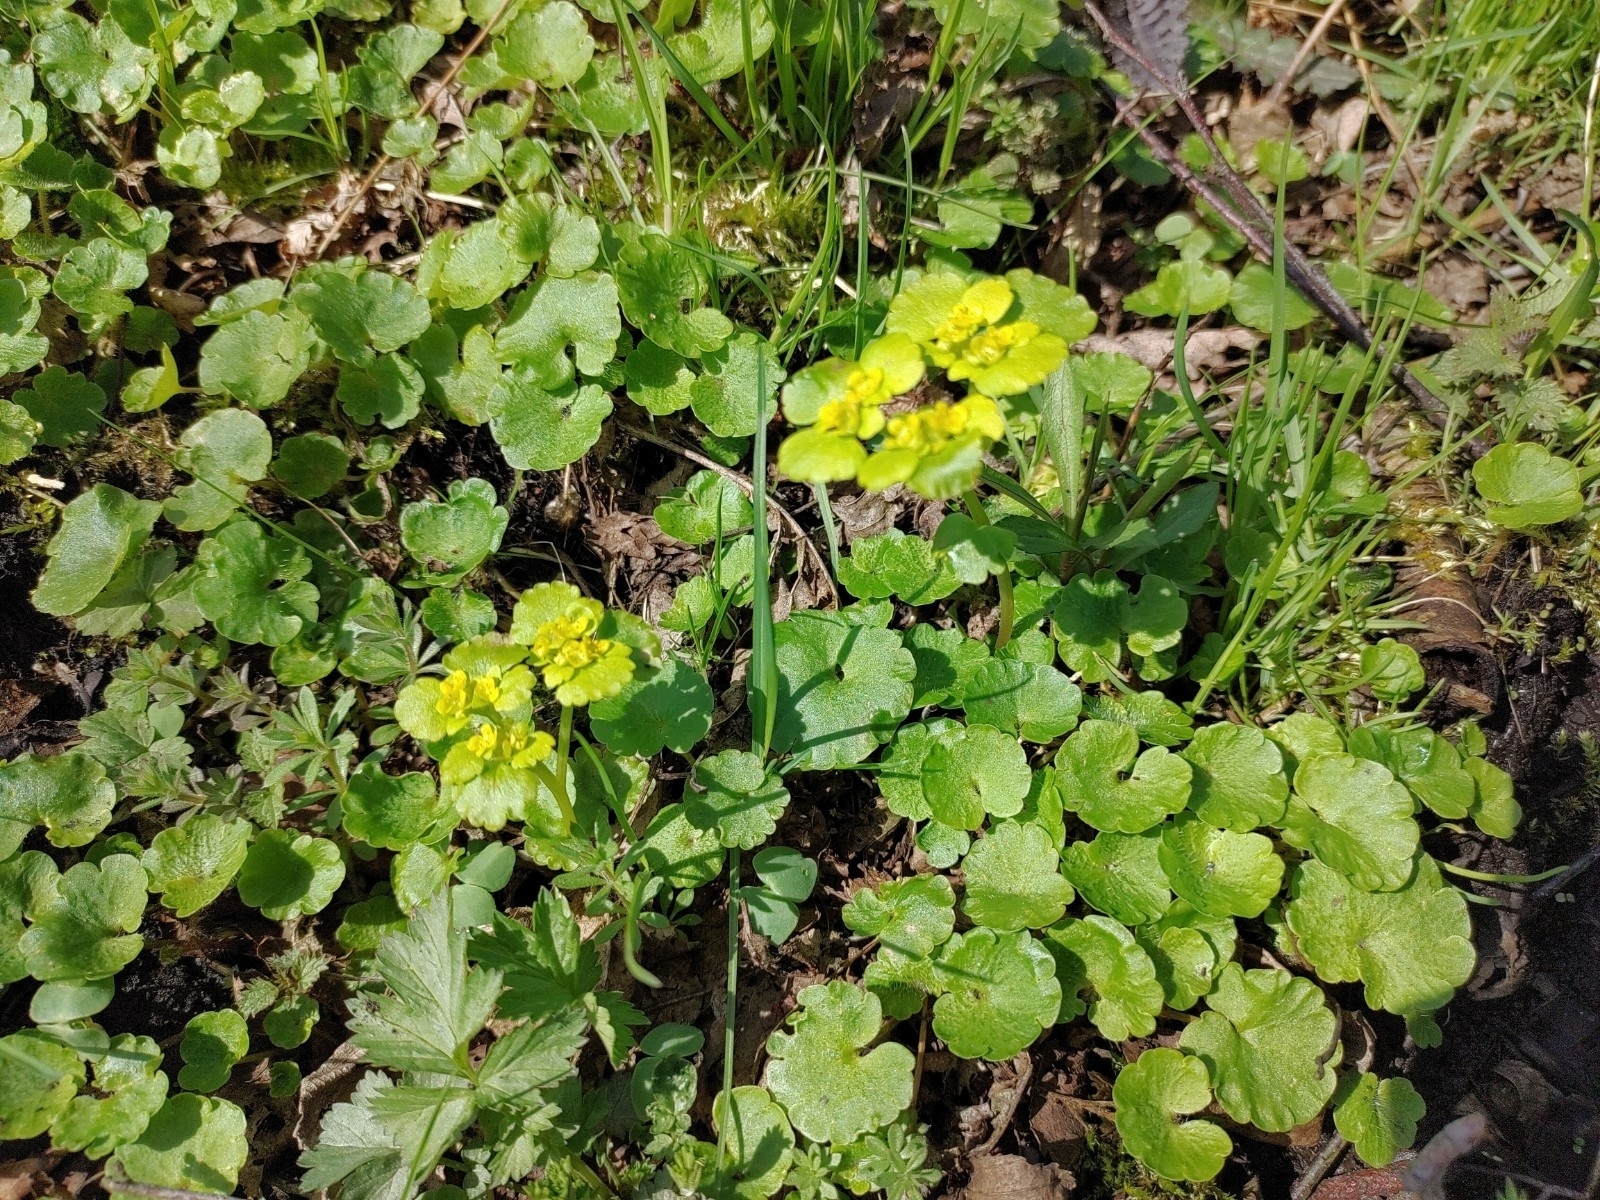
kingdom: Plantae
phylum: Tracheophyta
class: Magnoliopsida
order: Saxifragales
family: Saxifragaceae
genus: Chrysosplenium
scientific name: Chrysosplenium alternifolium
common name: Alternate-leaved golden-saxifrage
